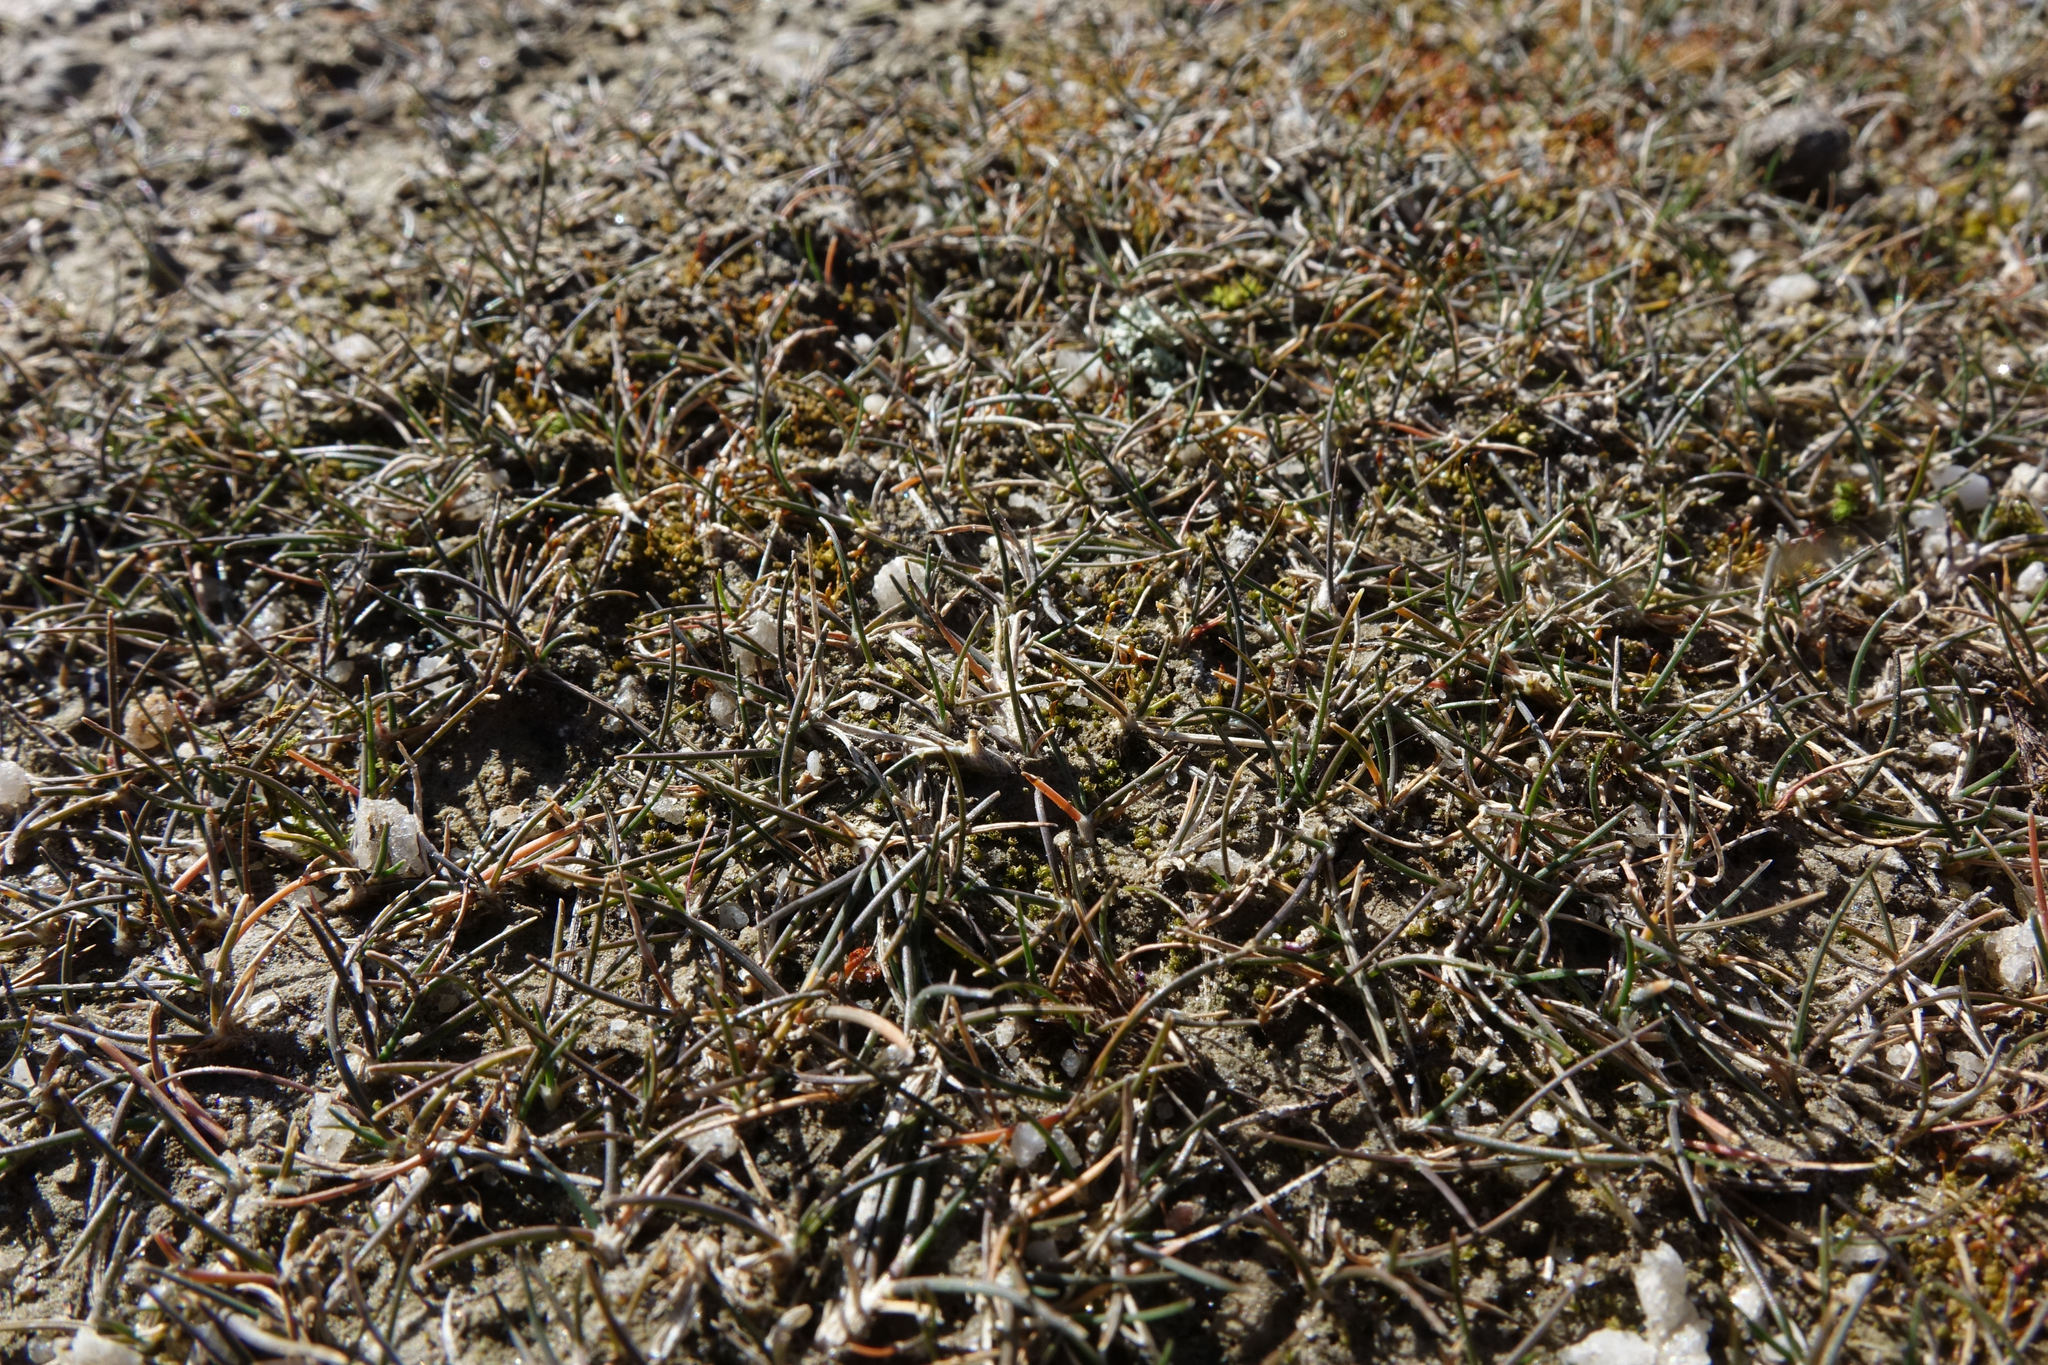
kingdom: Plantae
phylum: Tracheophyta
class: Liliopsida
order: Poales
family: Poaceae
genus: Puccinellia
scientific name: Puccinellia raroflorens
